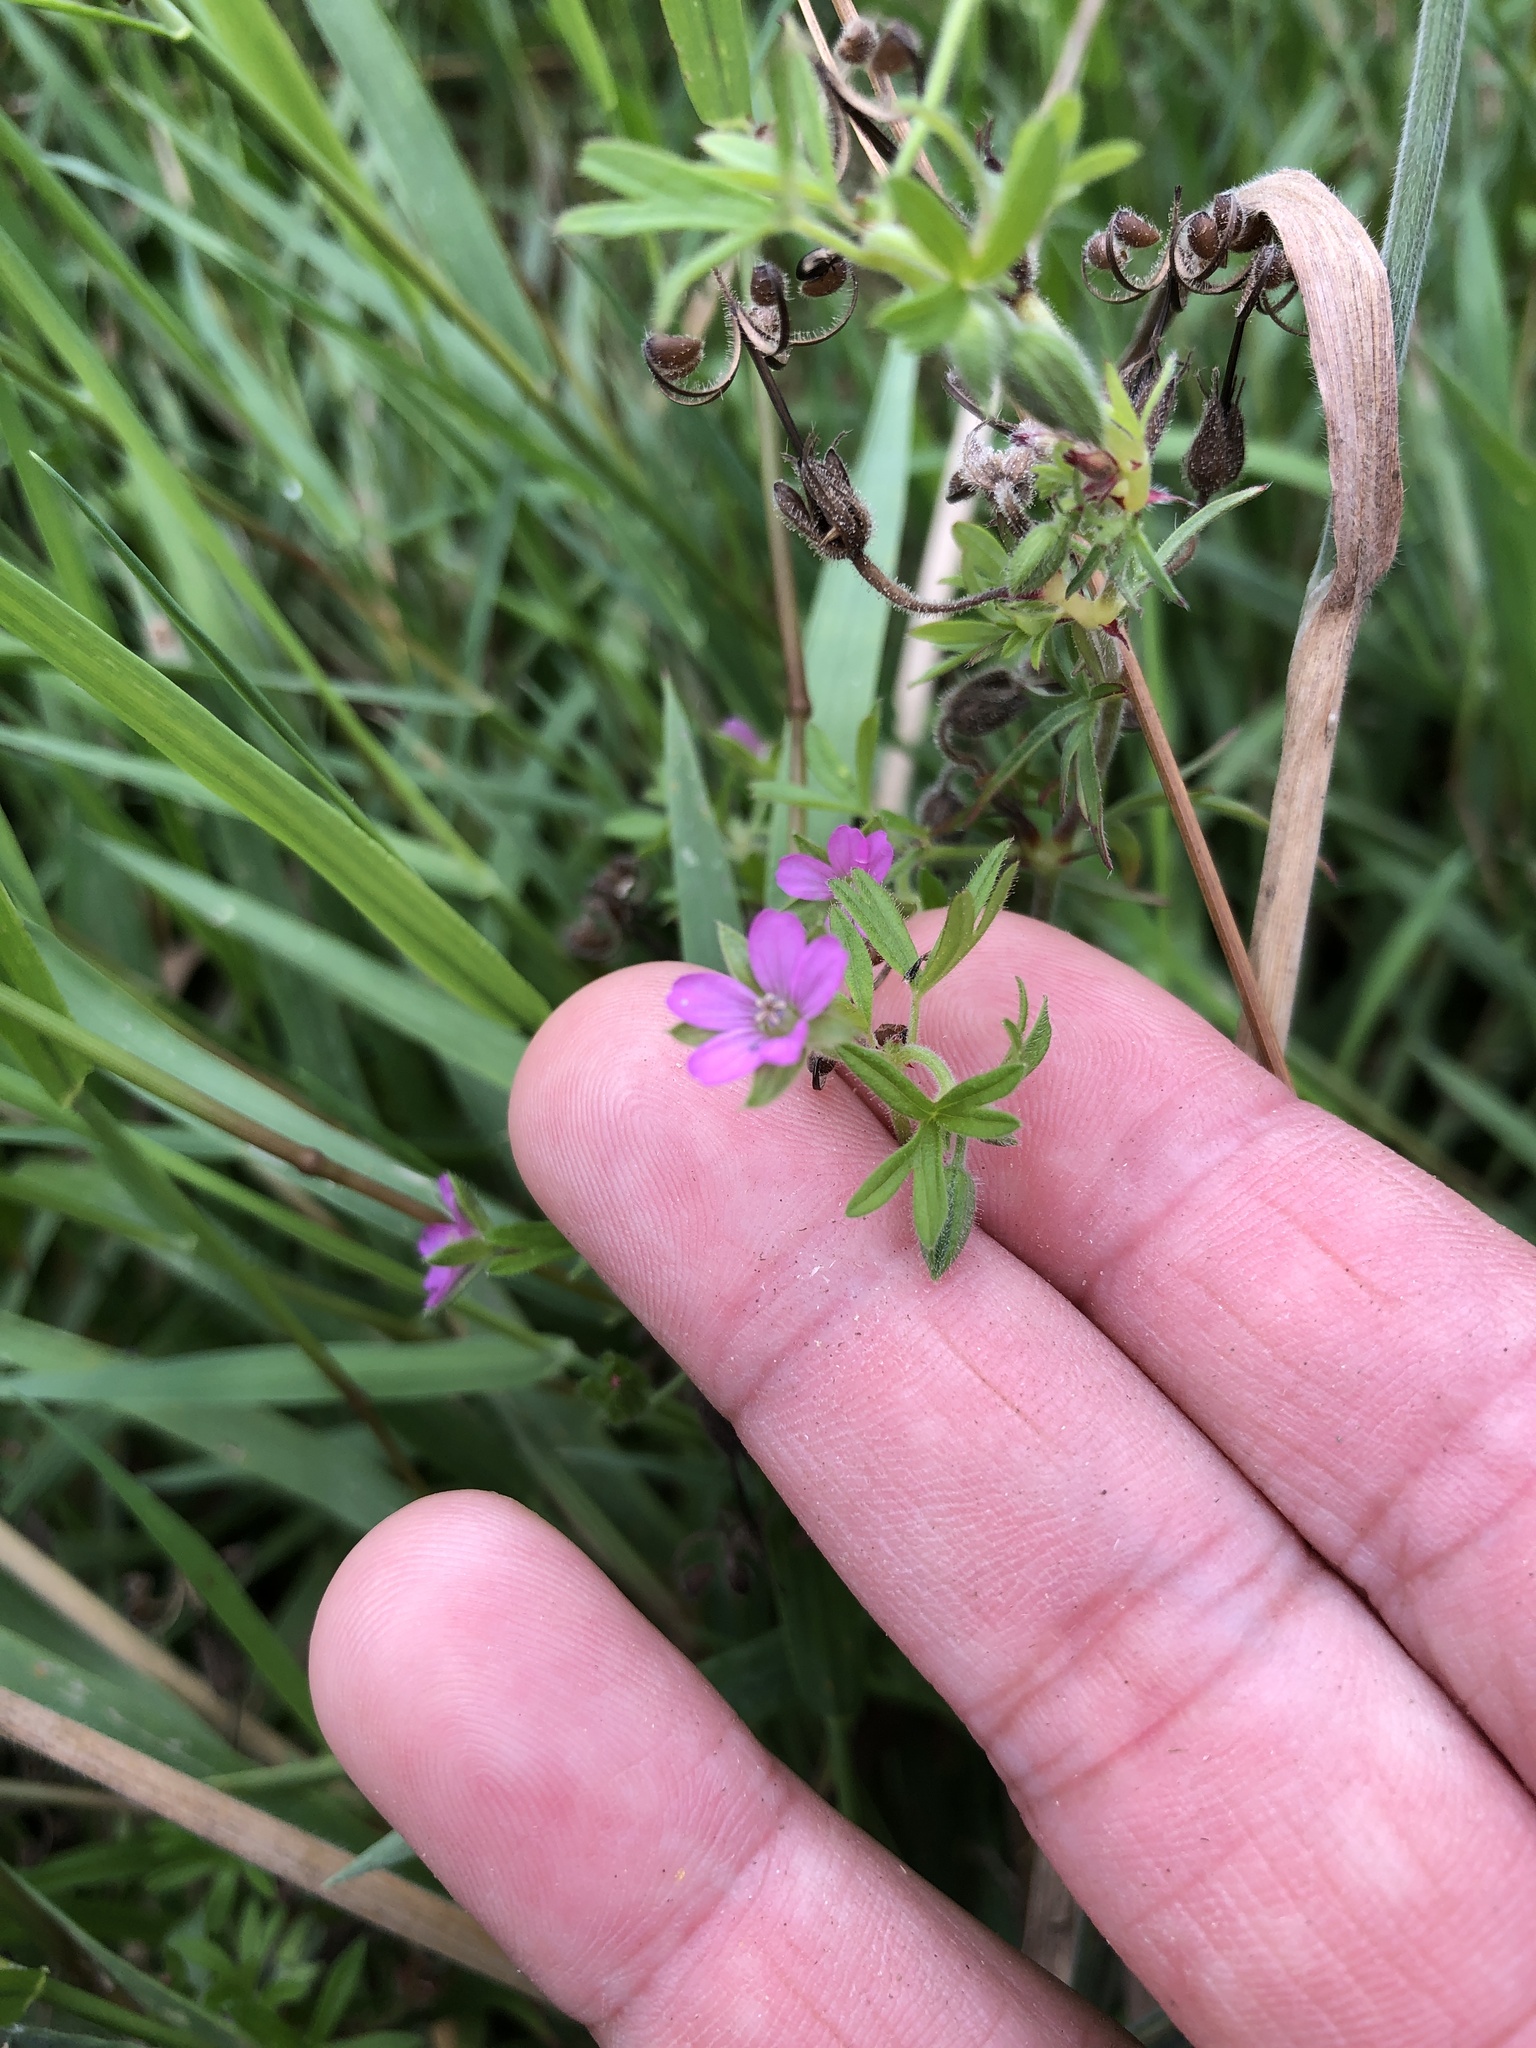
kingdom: Plantae
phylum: Tracheophyta
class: Magnoliopsida
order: Geraniales
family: Geraniaceae
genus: Geranium
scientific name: Geranium dissectum
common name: Cut-leaved crane's-bill
